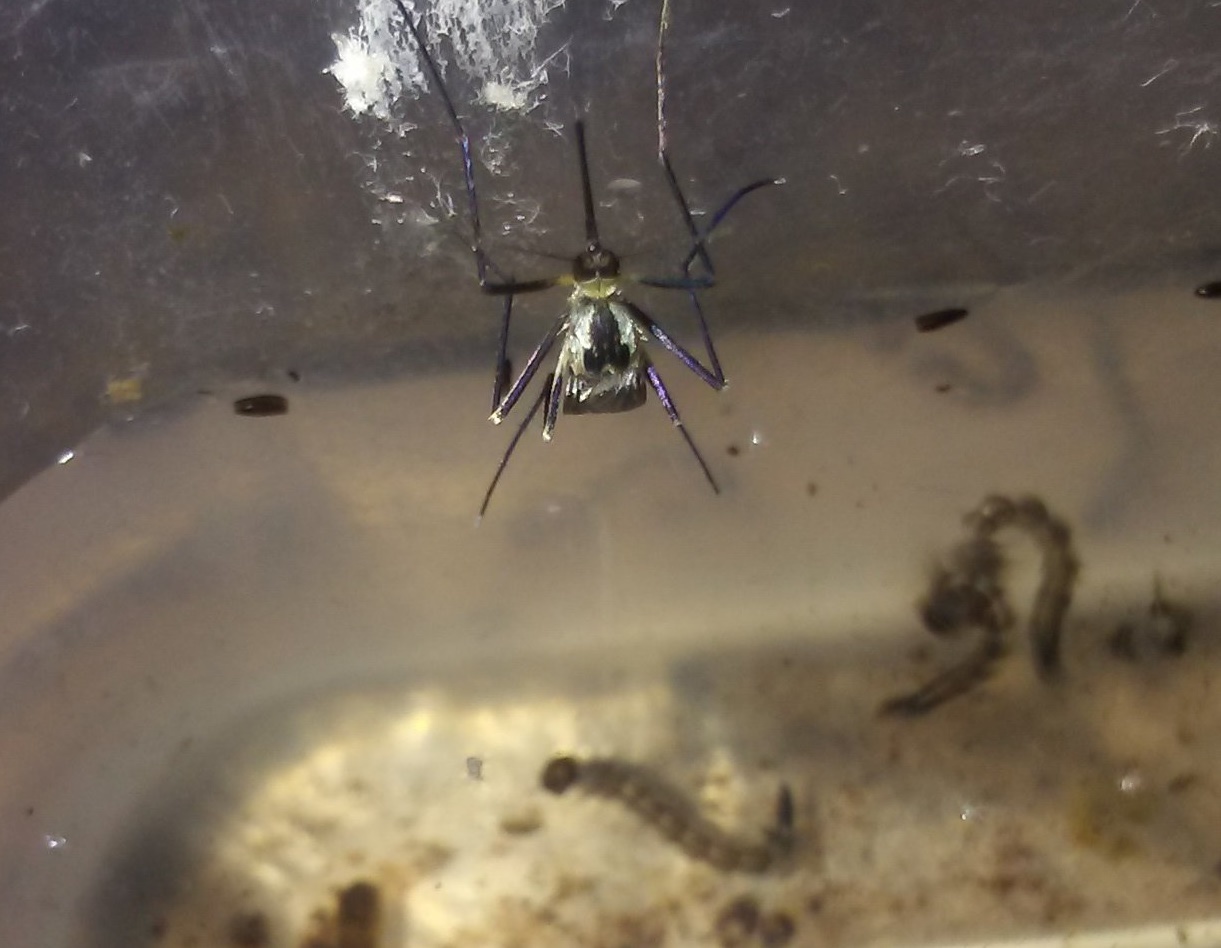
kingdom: Animalia
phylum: Arthropoda
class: Insecta
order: Diptera
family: Culicidae
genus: Aedes
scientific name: Aedes triseriatus
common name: Eastern treehole mosquito
